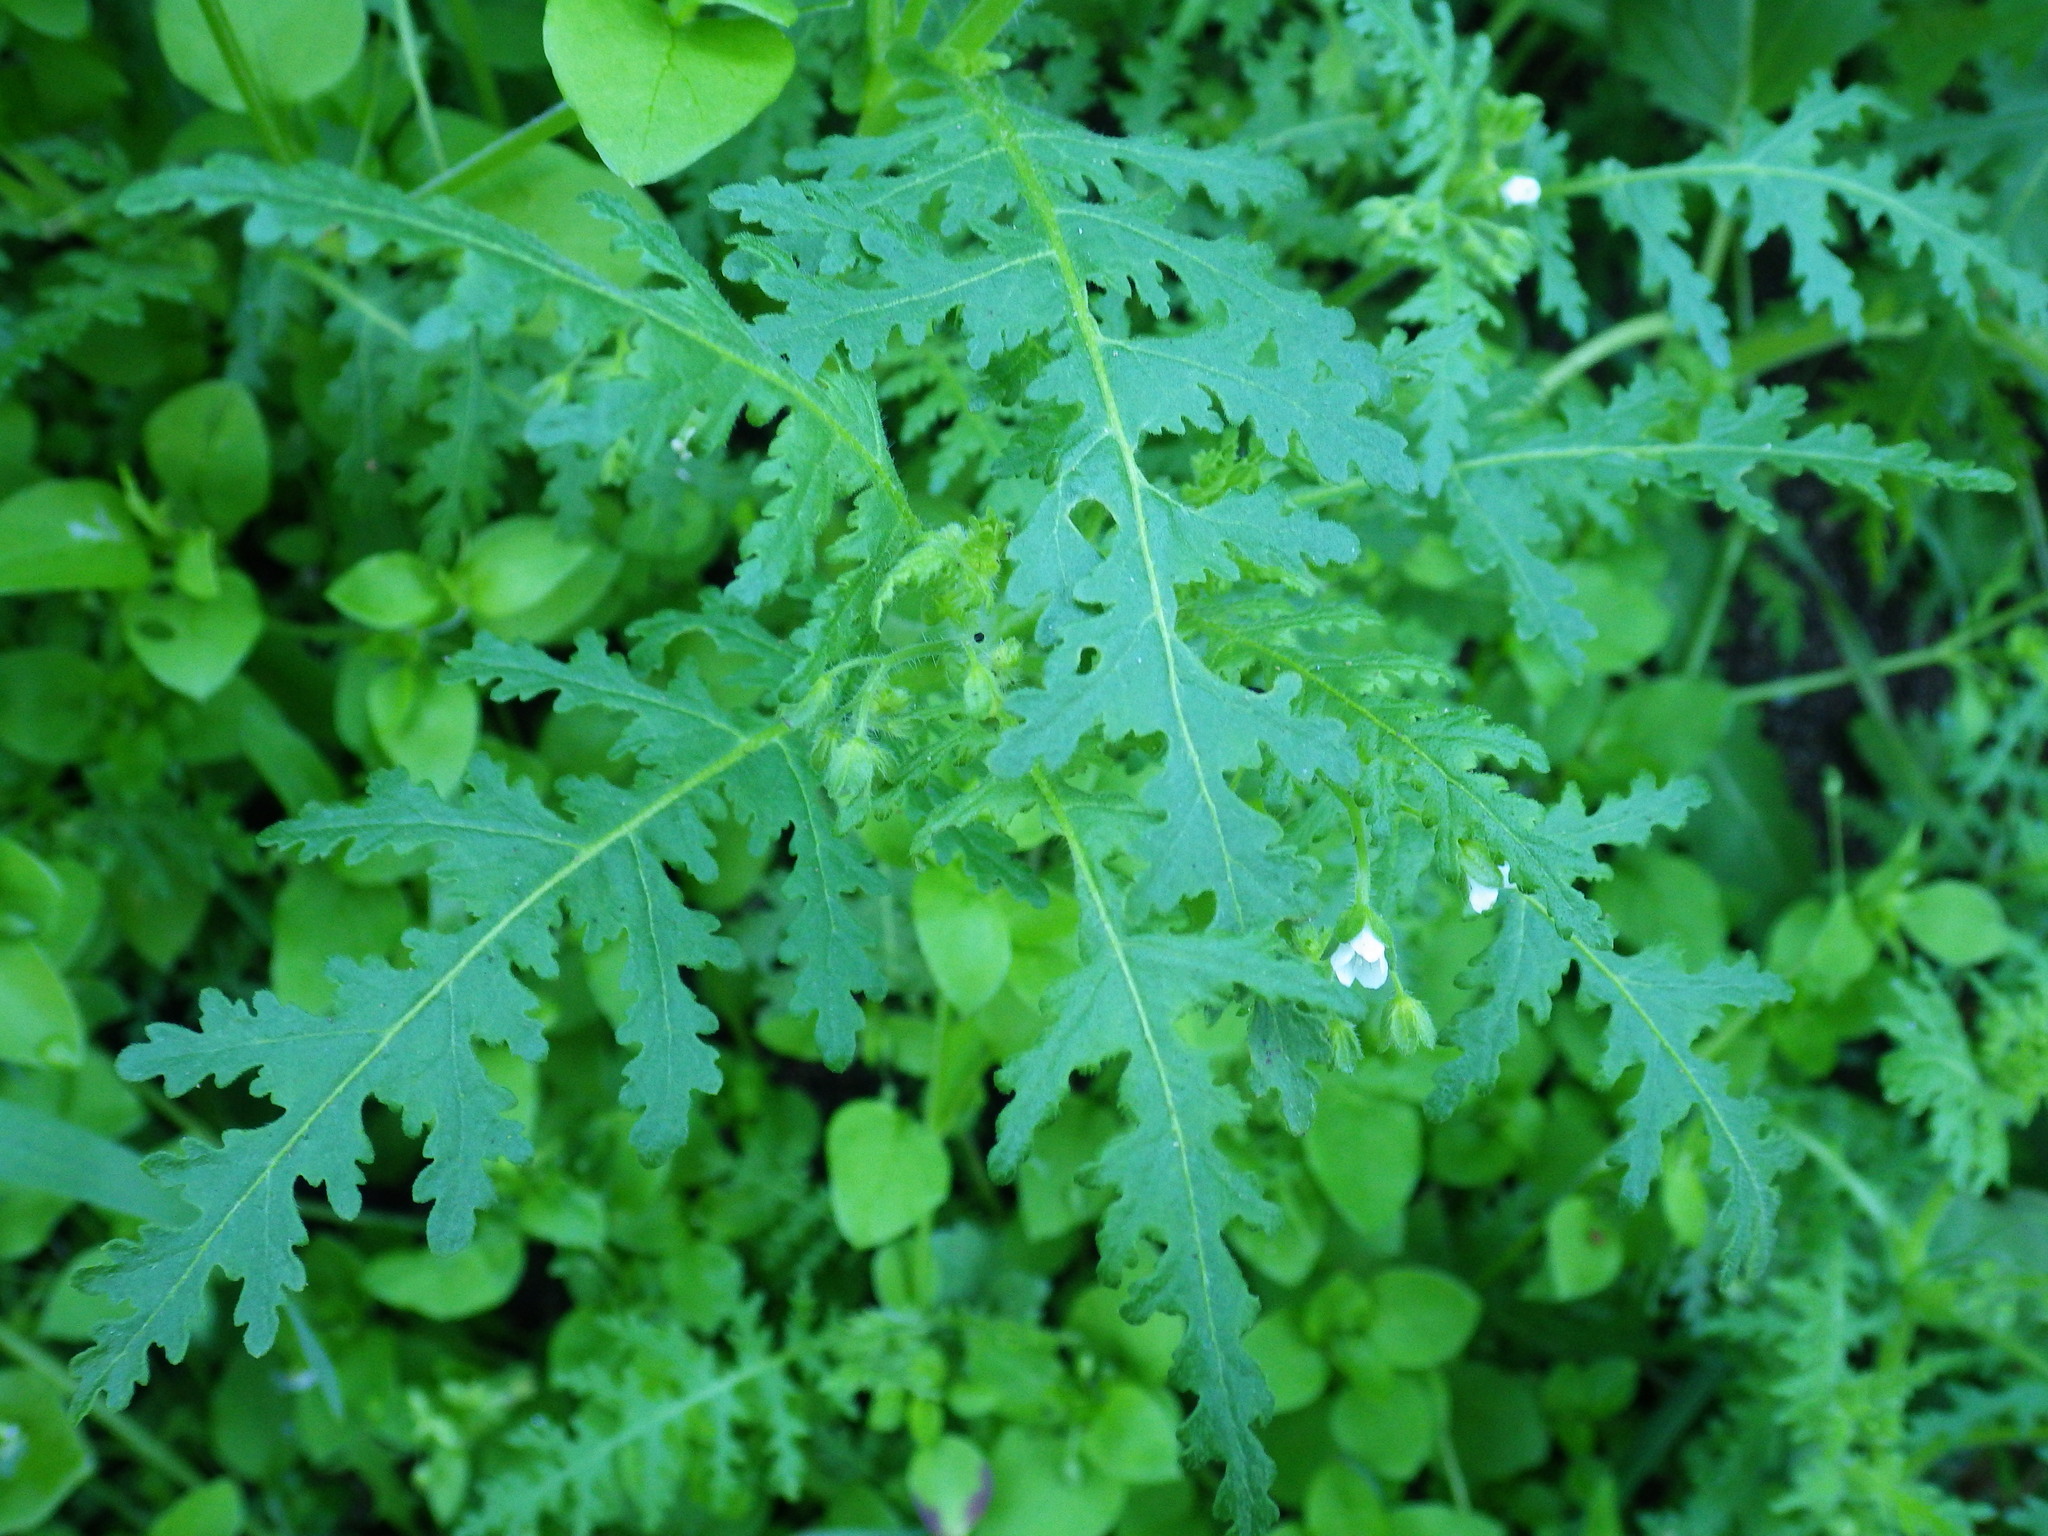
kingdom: Plantae
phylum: Tracheophyta
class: Magnoliopsida
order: Boraginales
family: Hydrophyllaceae
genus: Eucrypta
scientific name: Eucrypta chrysanthemifolia
